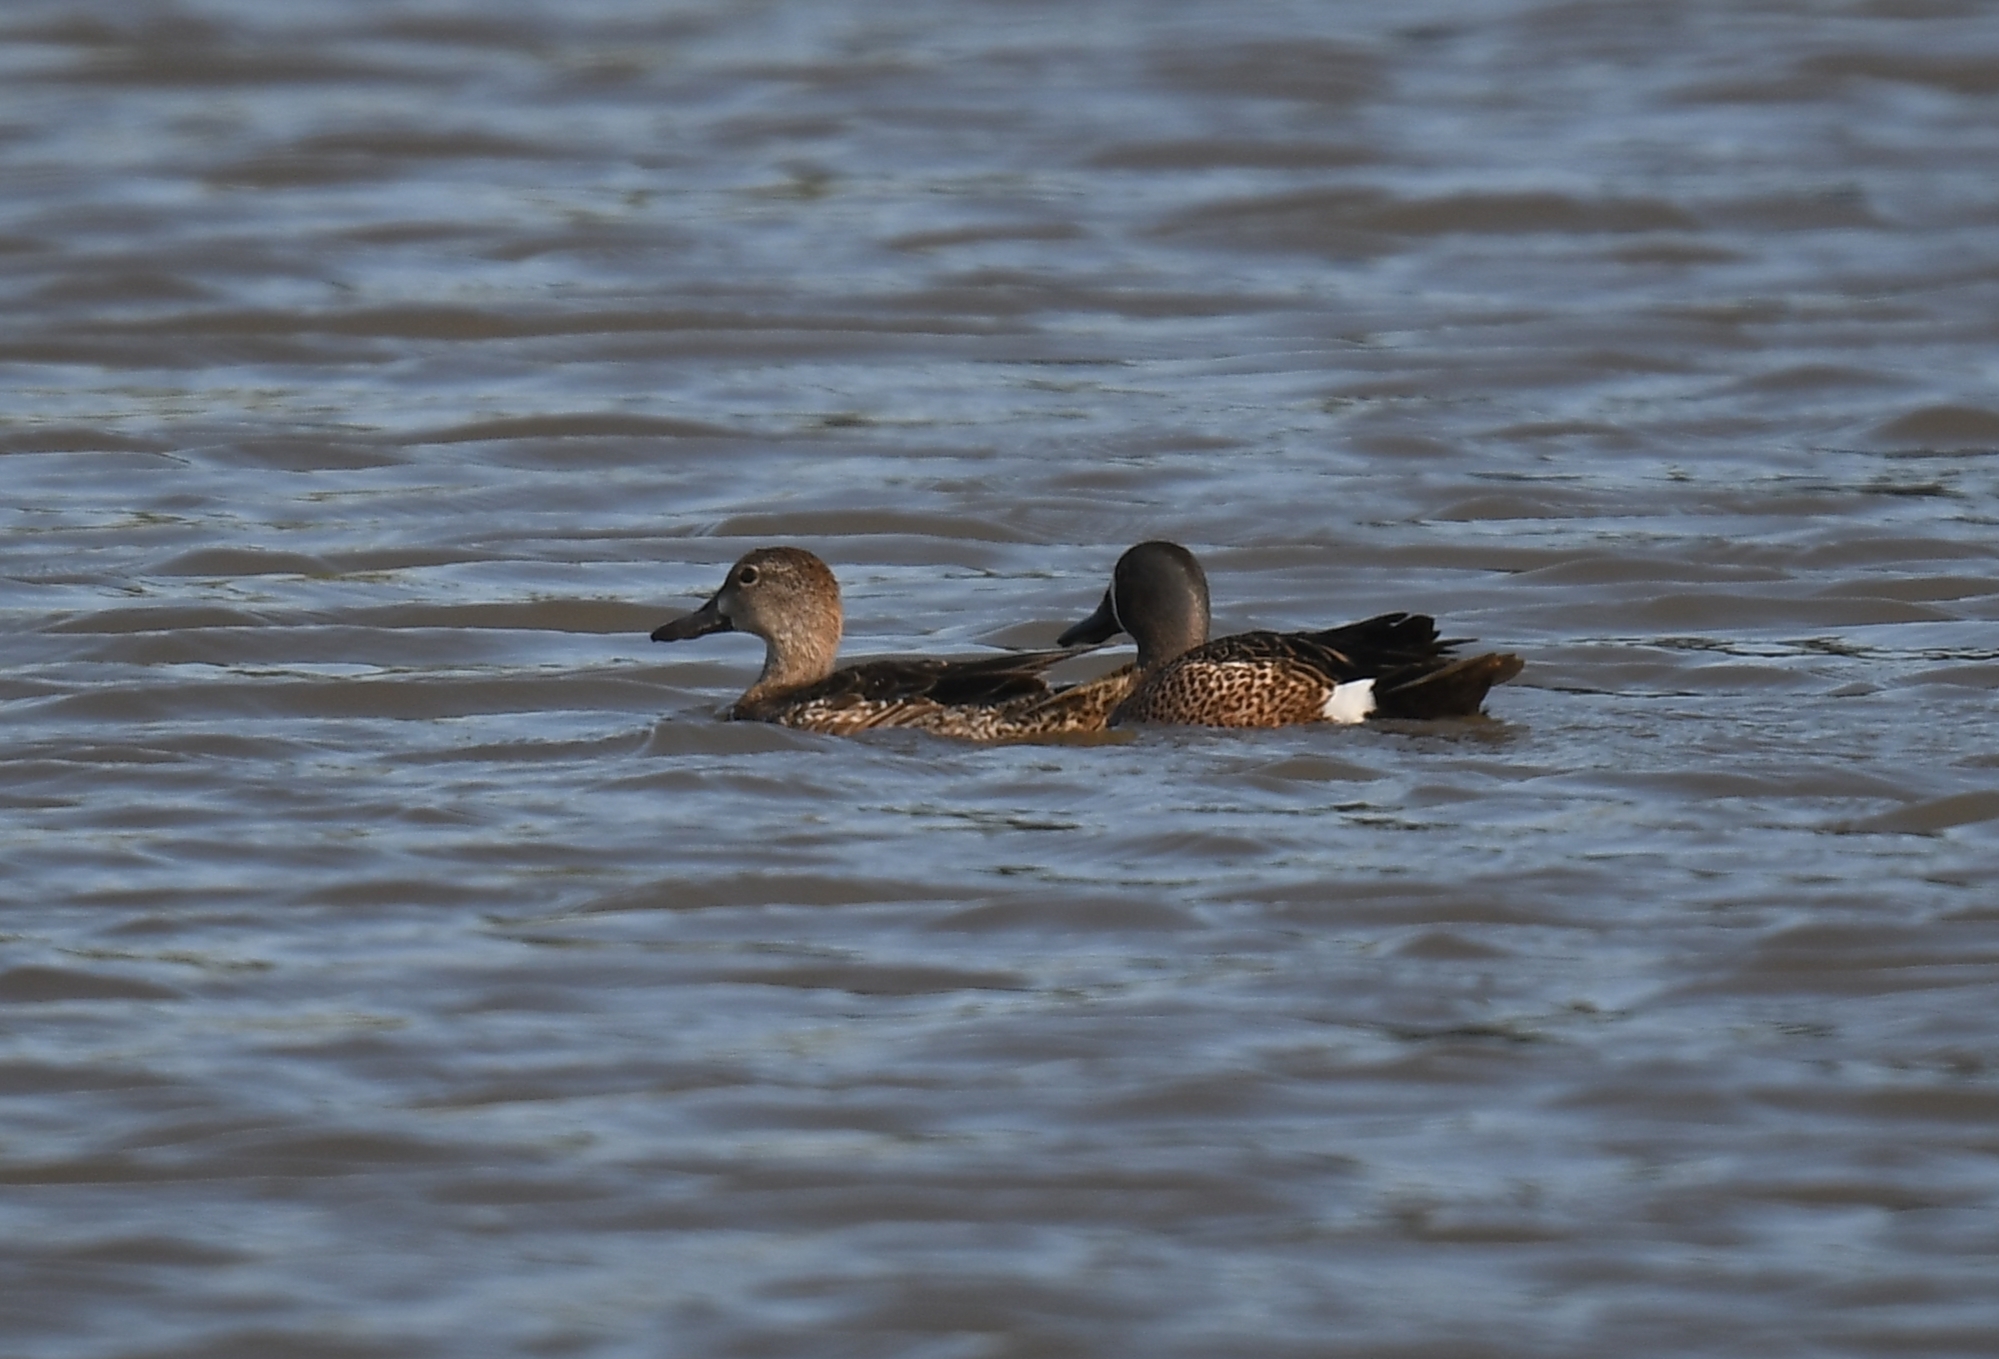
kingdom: Animalia
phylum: Chordata
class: Aves
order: Anseriformes
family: Anatidae
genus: Spatula
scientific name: Spatula discors
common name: Blue-winged teal
